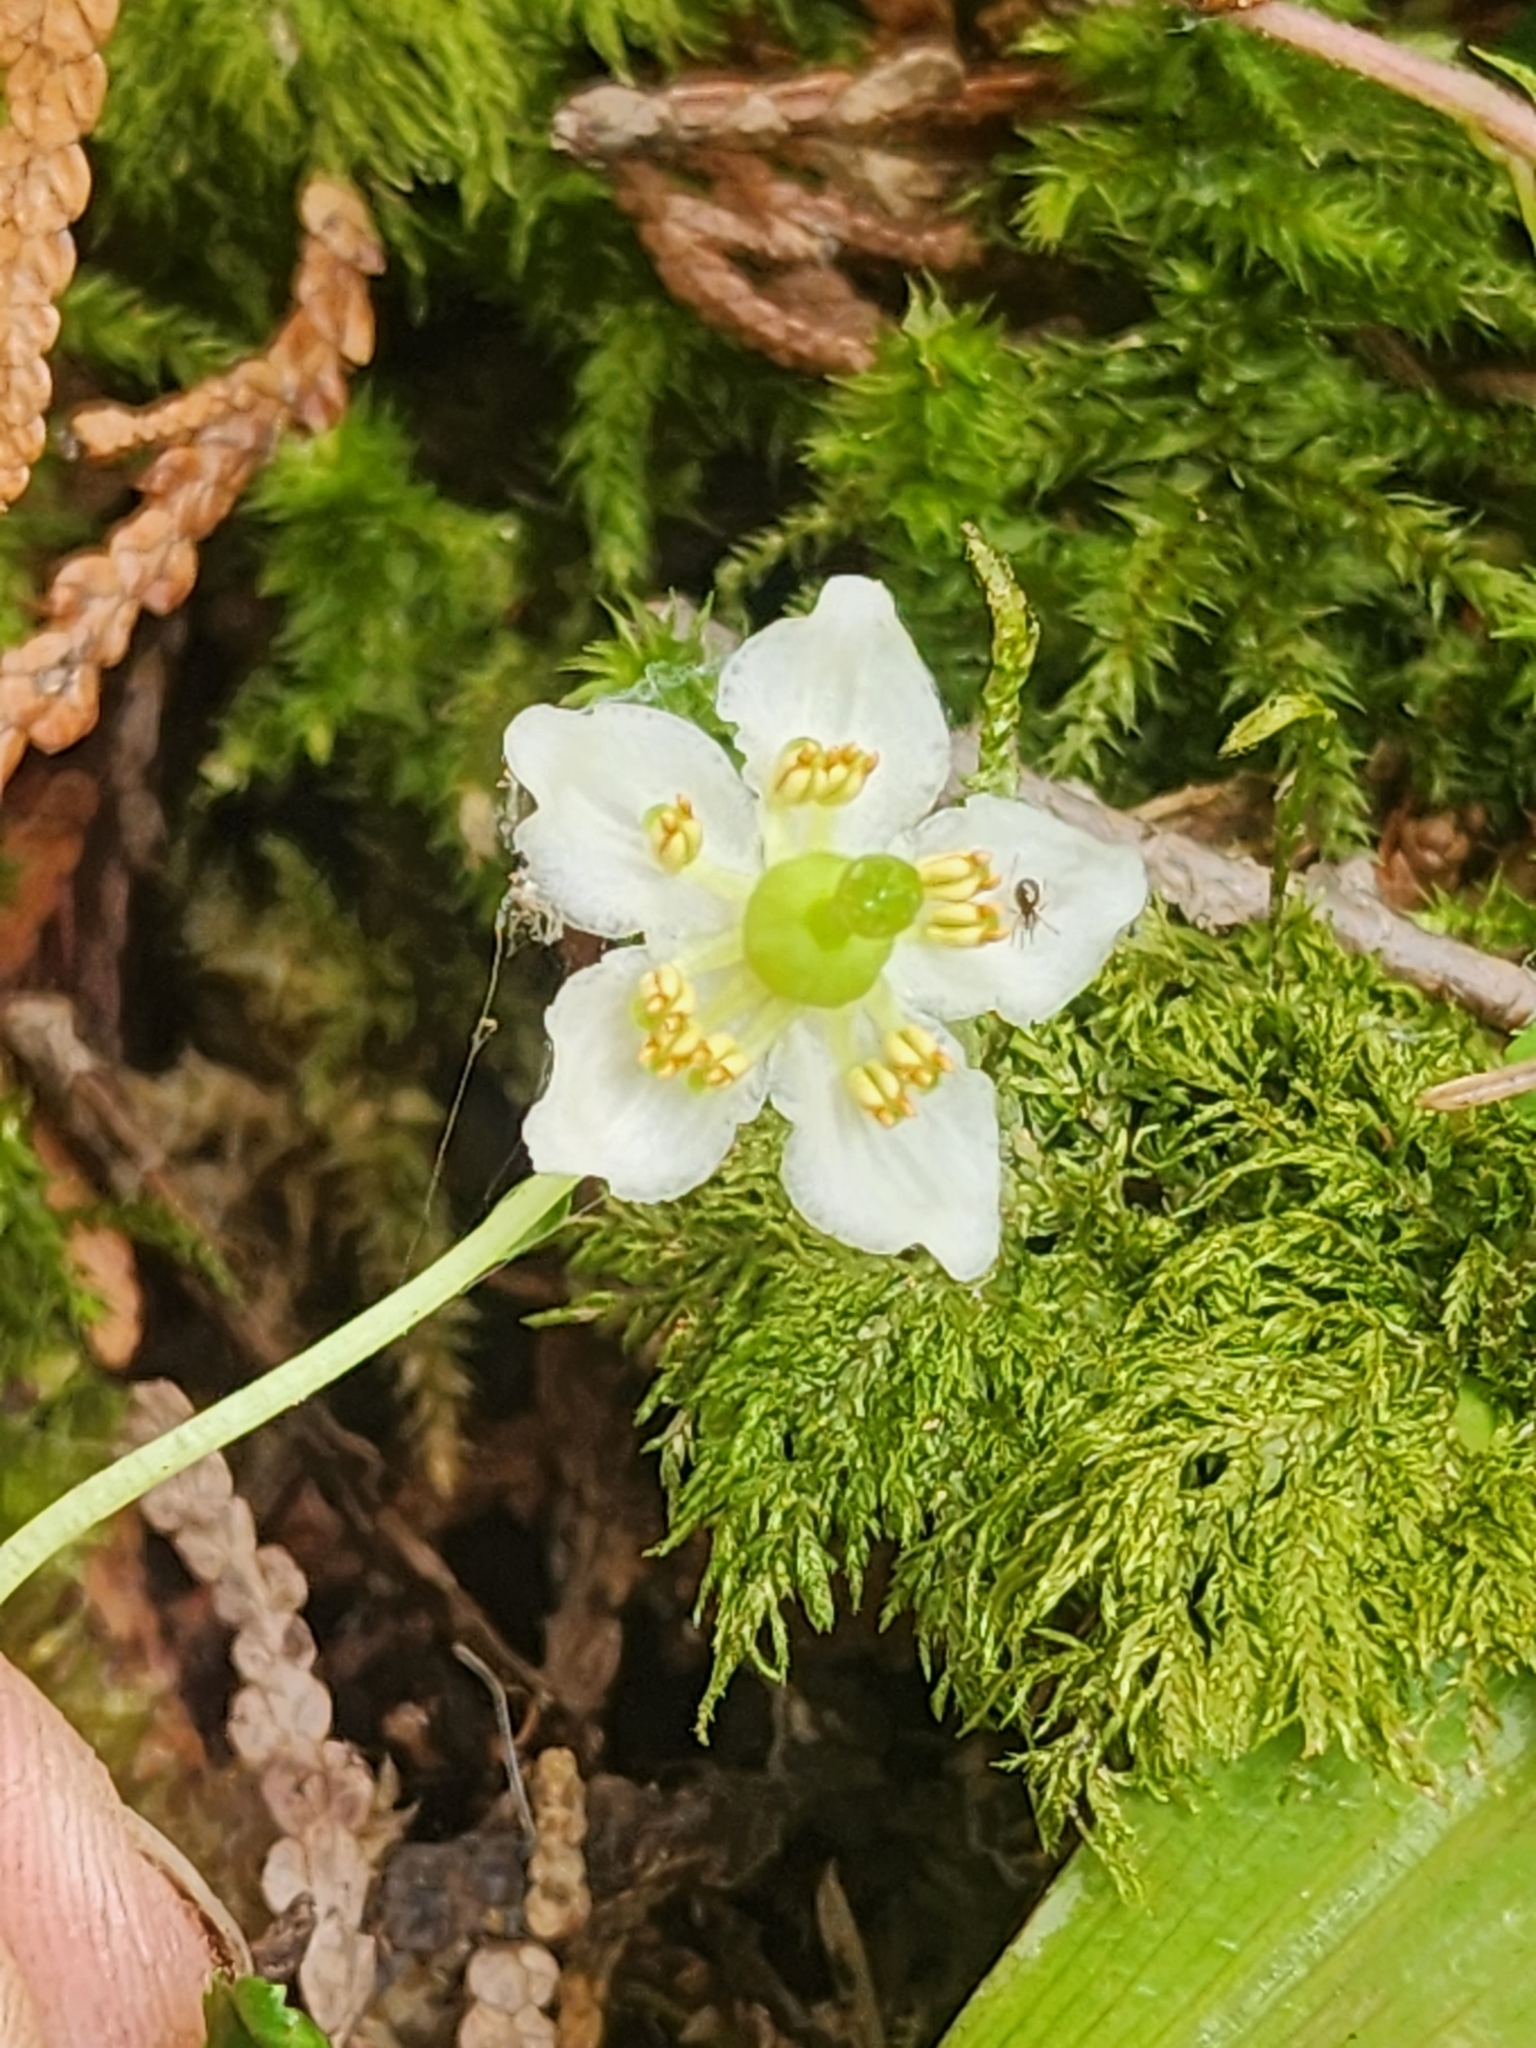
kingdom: Plantae
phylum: Tracheophyta
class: Magnoliopsida
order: Ericales
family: Ericaceae
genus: Moneses
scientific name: Moneses uniflora
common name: One-flowered wintergreen
